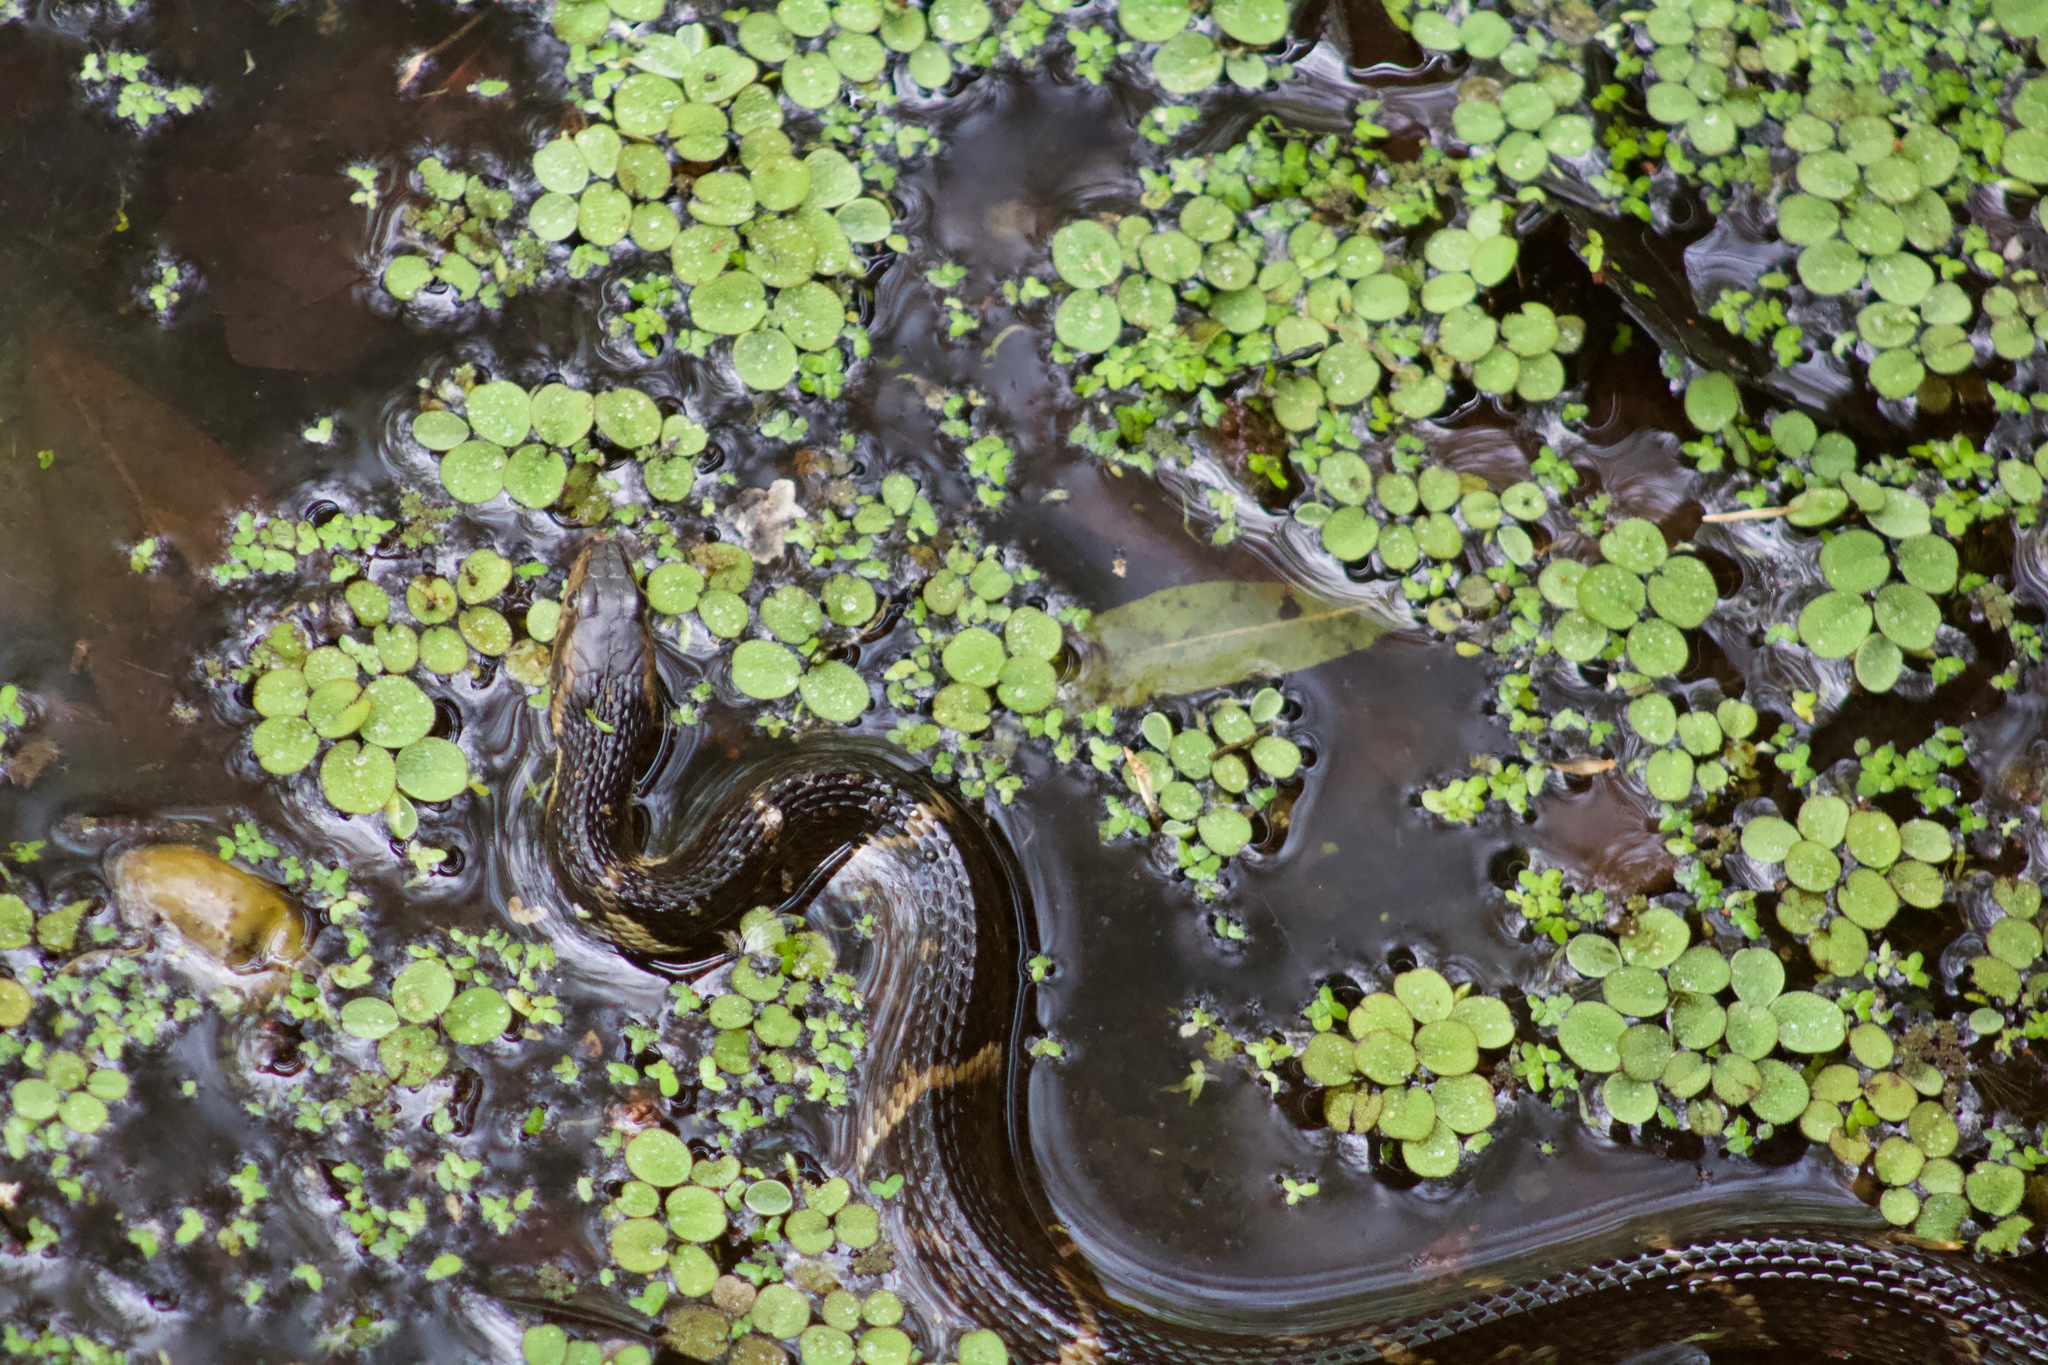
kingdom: Animalia
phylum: Chordata
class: Squamata
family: Colubridae
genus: Nerodia
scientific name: Nerodia fasciata
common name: Southern water snake
